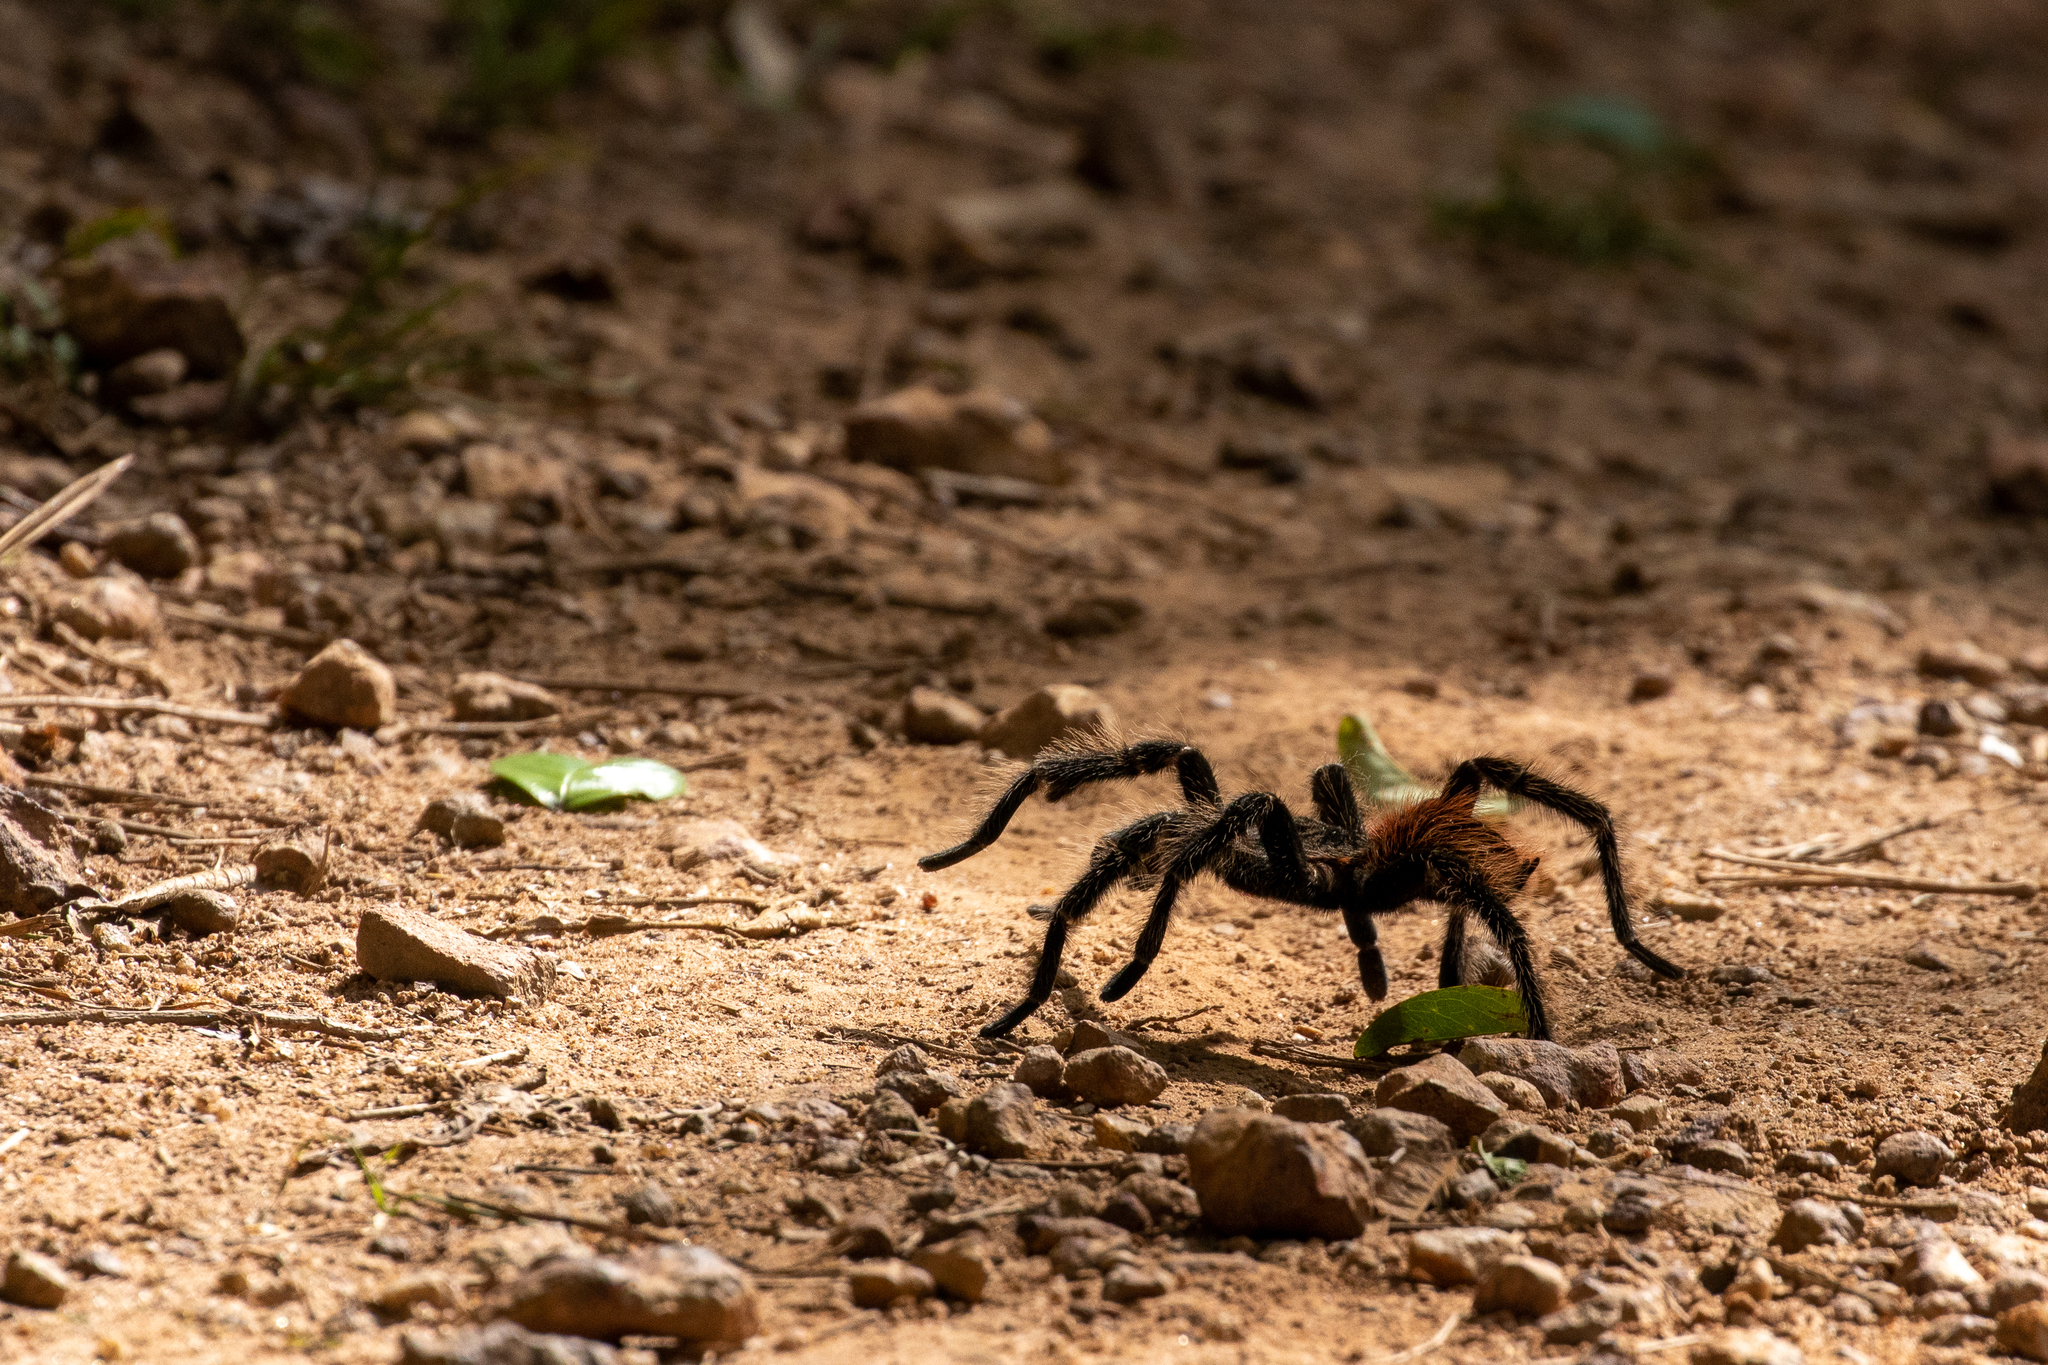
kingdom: Animalia
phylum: Arthropoda
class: Arachnida
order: Araneae
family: Theraphosidae
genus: Lasiodora
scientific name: Lasiodora parahybana
